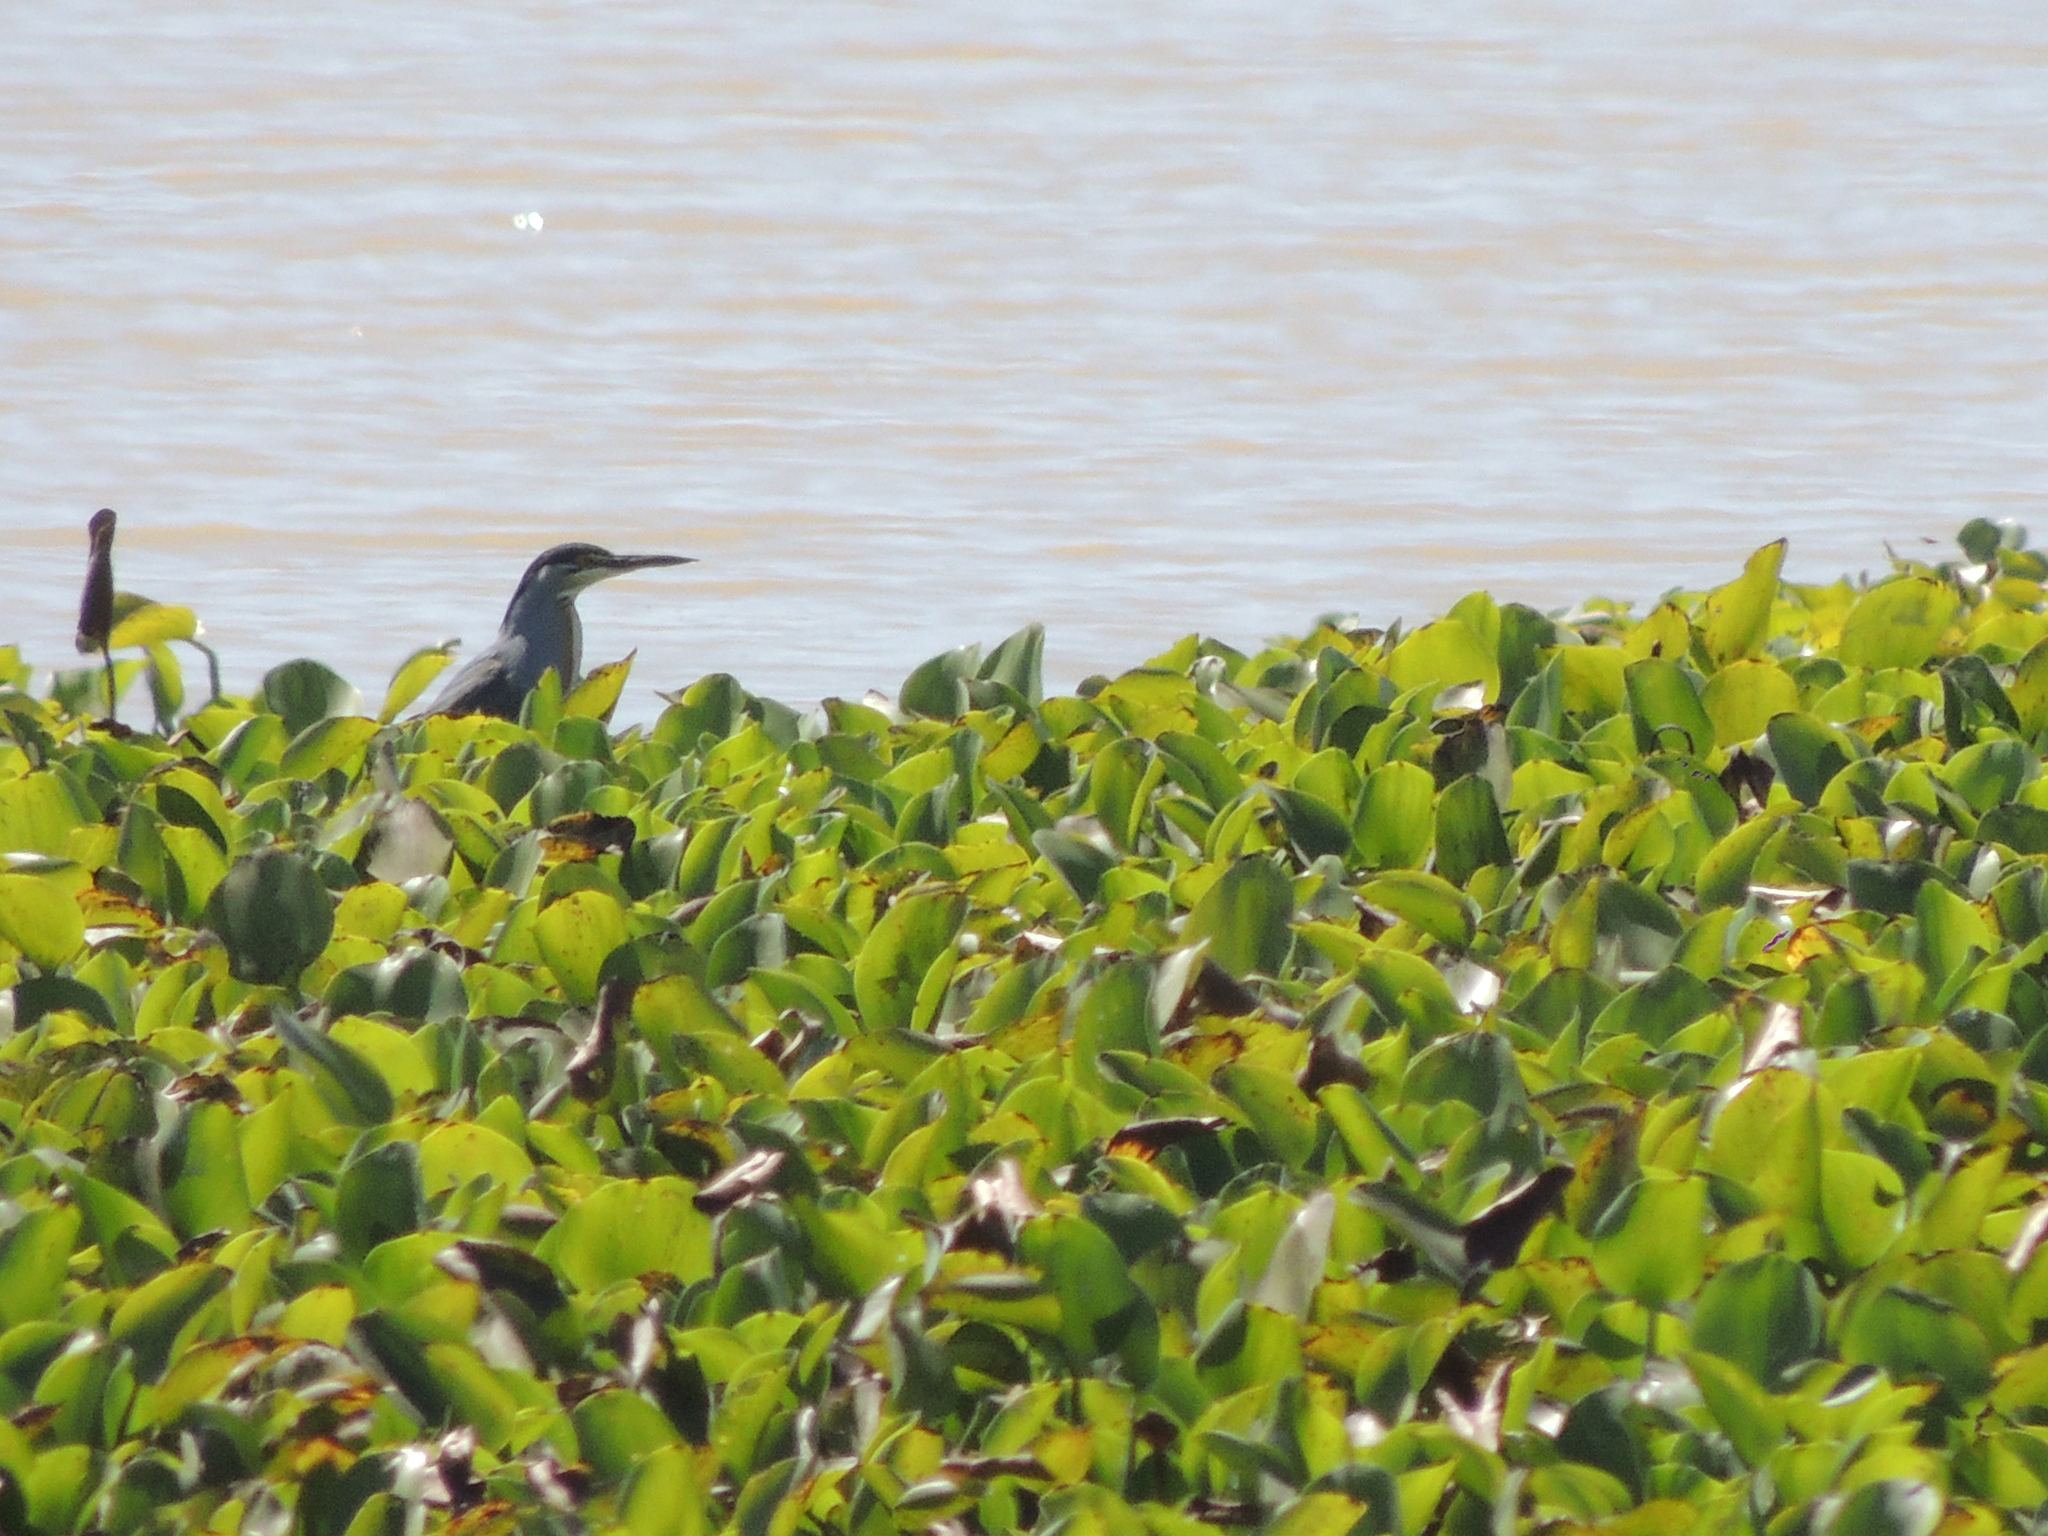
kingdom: Animalia
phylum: Chordata
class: Aves
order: Pelecaniformes
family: Ardeidae
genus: Butorides
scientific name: Butorides striata
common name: Striated heron
